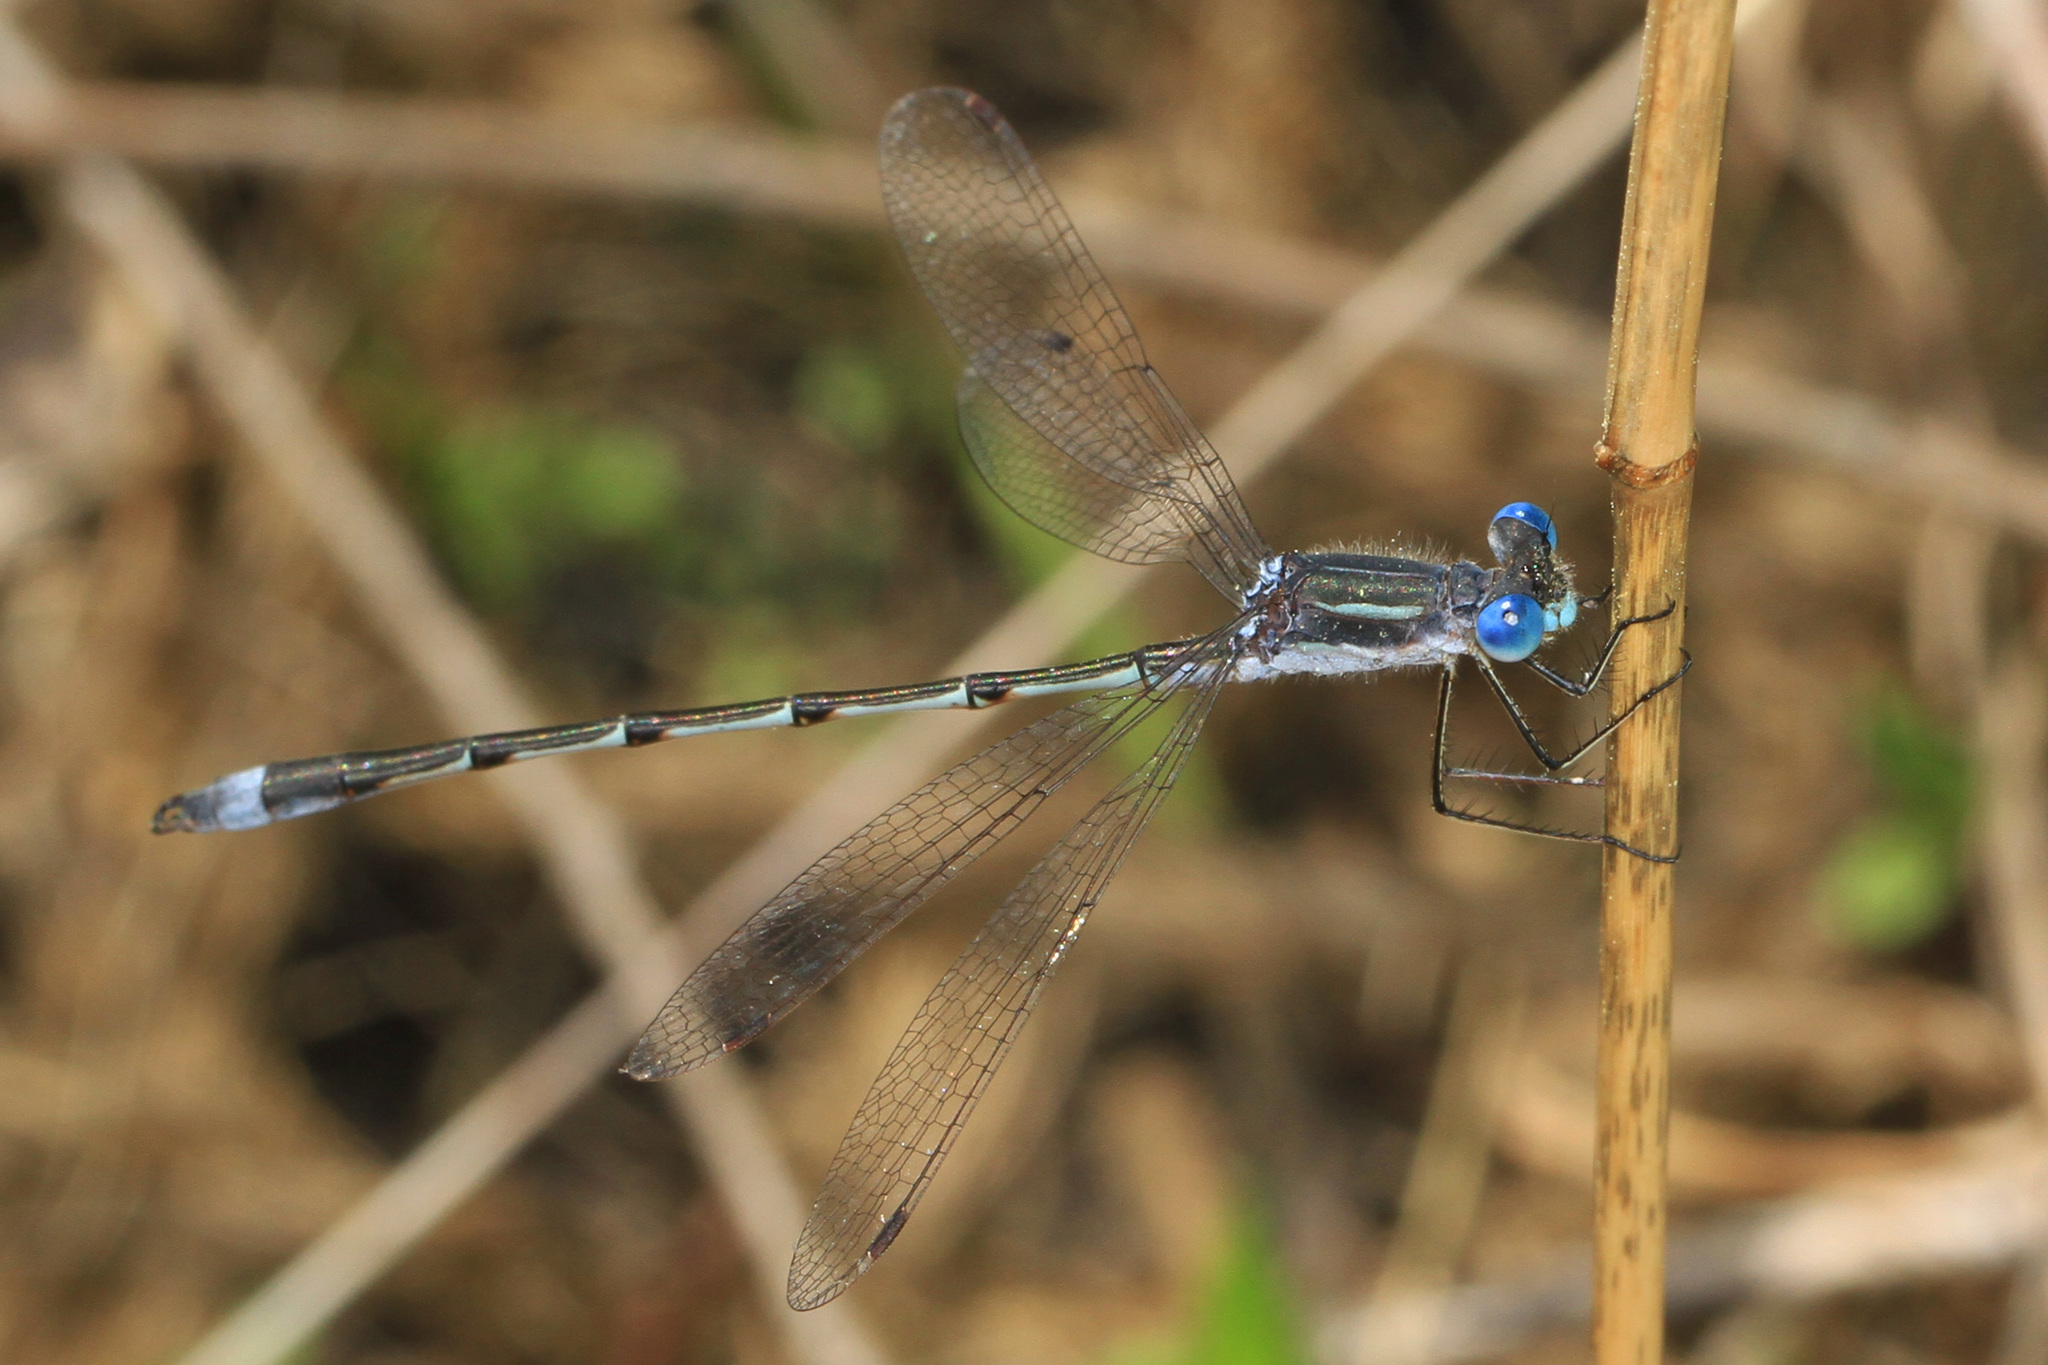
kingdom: Animalia
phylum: Arthropoda
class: Insecta
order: Odonata
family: Lestidae
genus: Lestes
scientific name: Lestes australis
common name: Southern spreadwing
